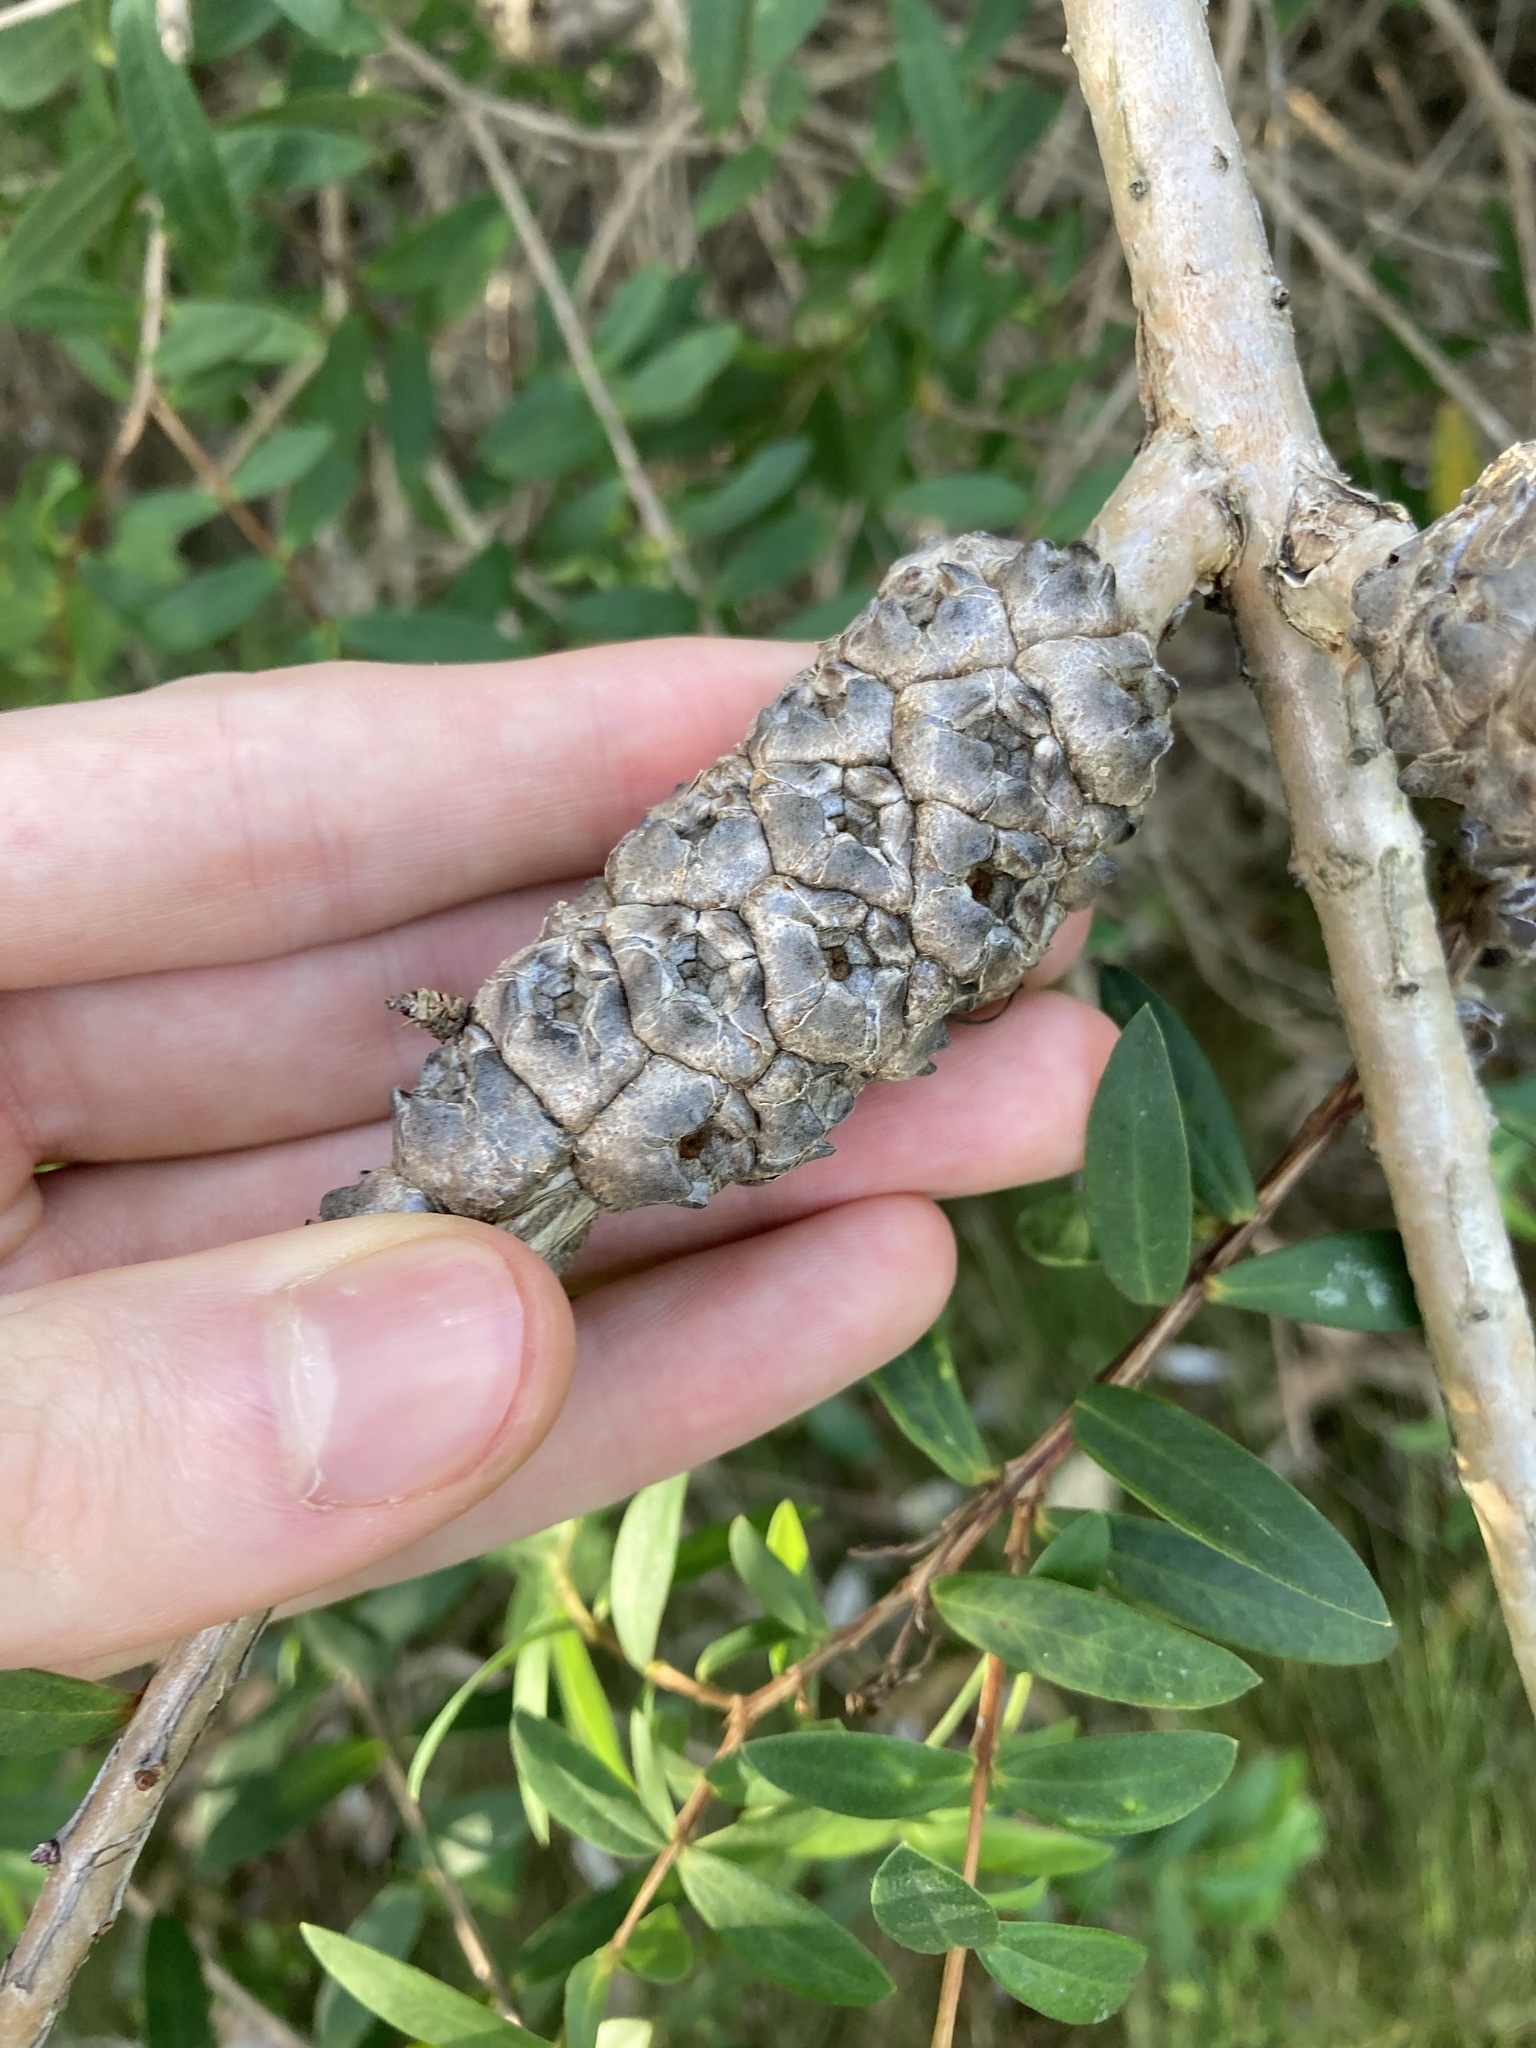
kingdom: Plantae
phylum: Tracheophyta
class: Magnoliopsida
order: Myrtales
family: Myrtaceae
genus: Melaleuca
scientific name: Melaleuca hypericifolia
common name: Red honey myrtle
